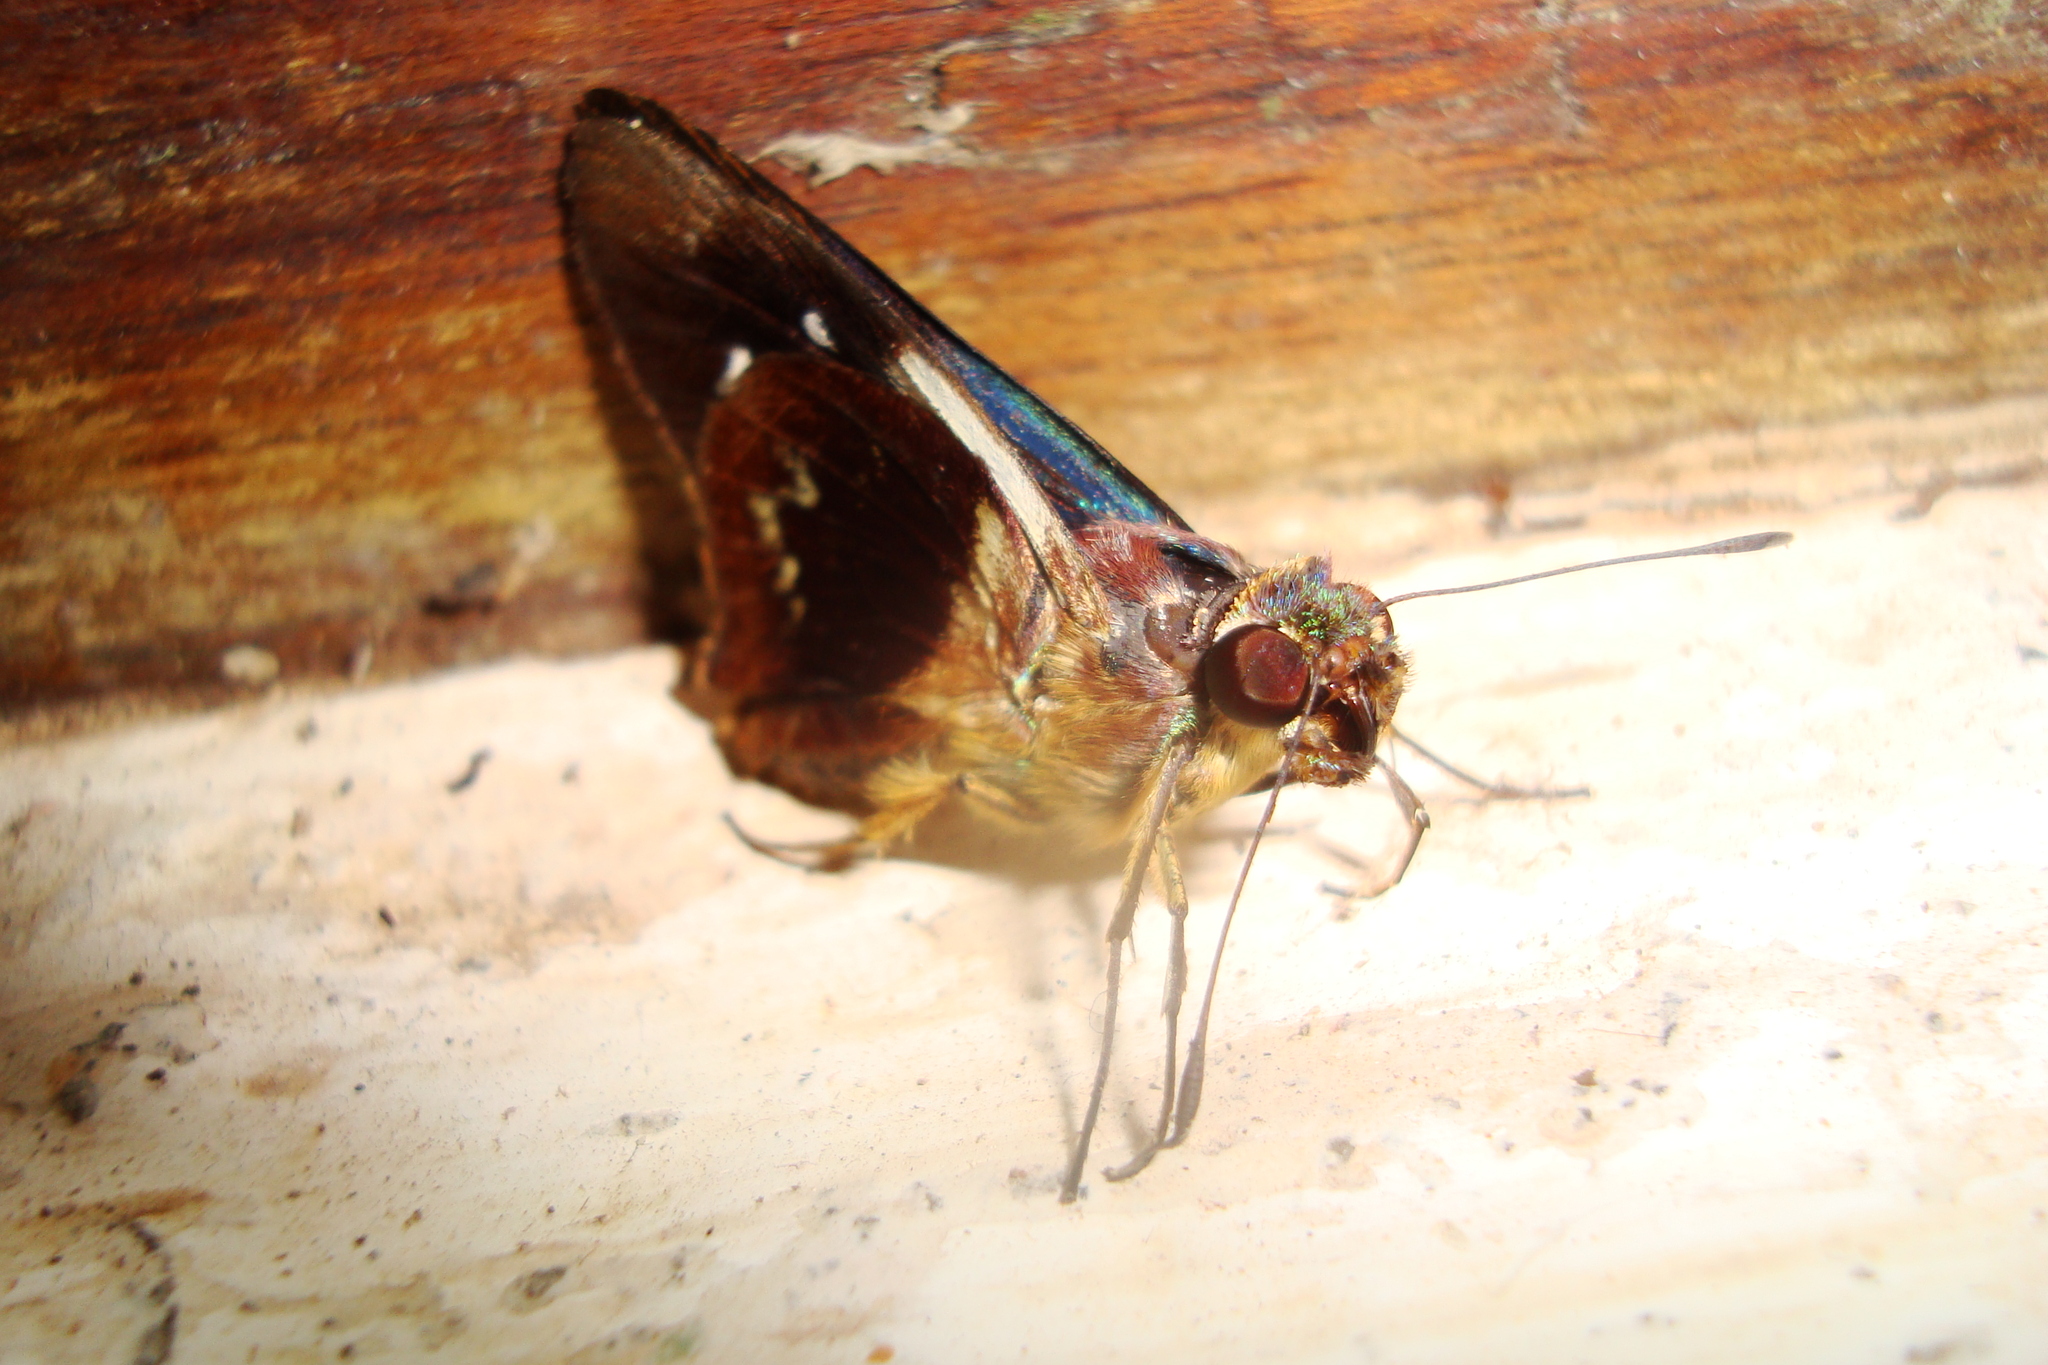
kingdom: Animalia
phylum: Arthropoda
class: Insecta
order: Lepidoptera
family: Hesperiidae
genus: Thracides
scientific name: Thracides phidon
